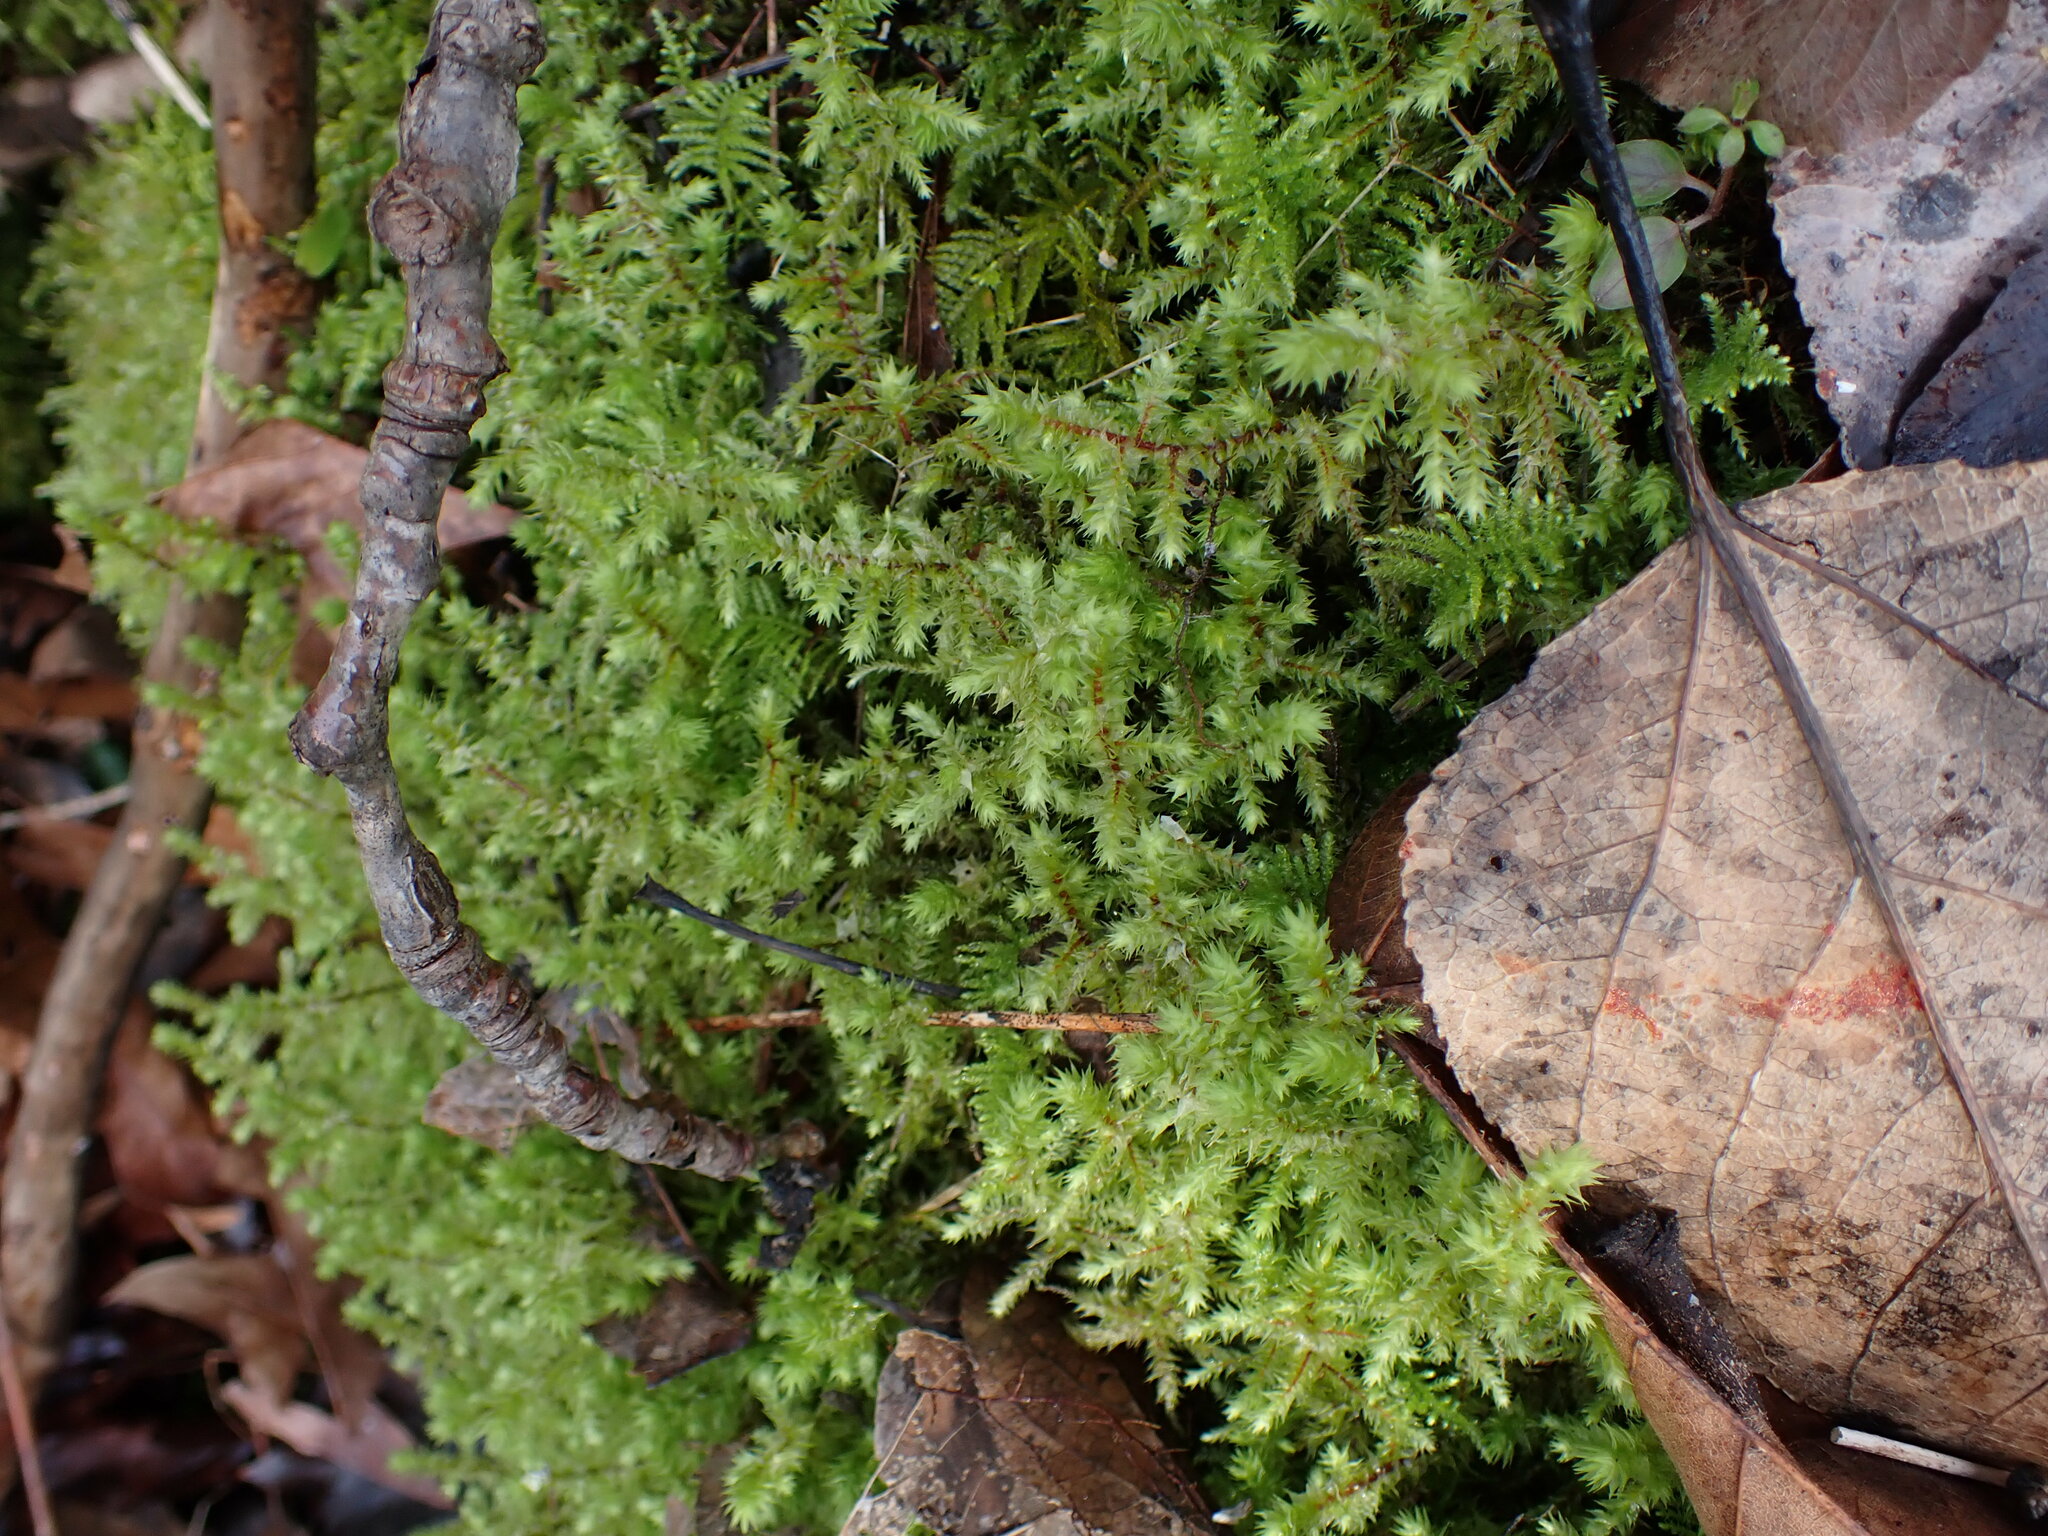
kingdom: Plantae
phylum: Bryophyta
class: Bryopsida
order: Hypnales
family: Hylocomiaceae
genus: Hylocomiadelphus
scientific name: Hylocomiadelphus triquetrus
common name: Rough goose neck moss
